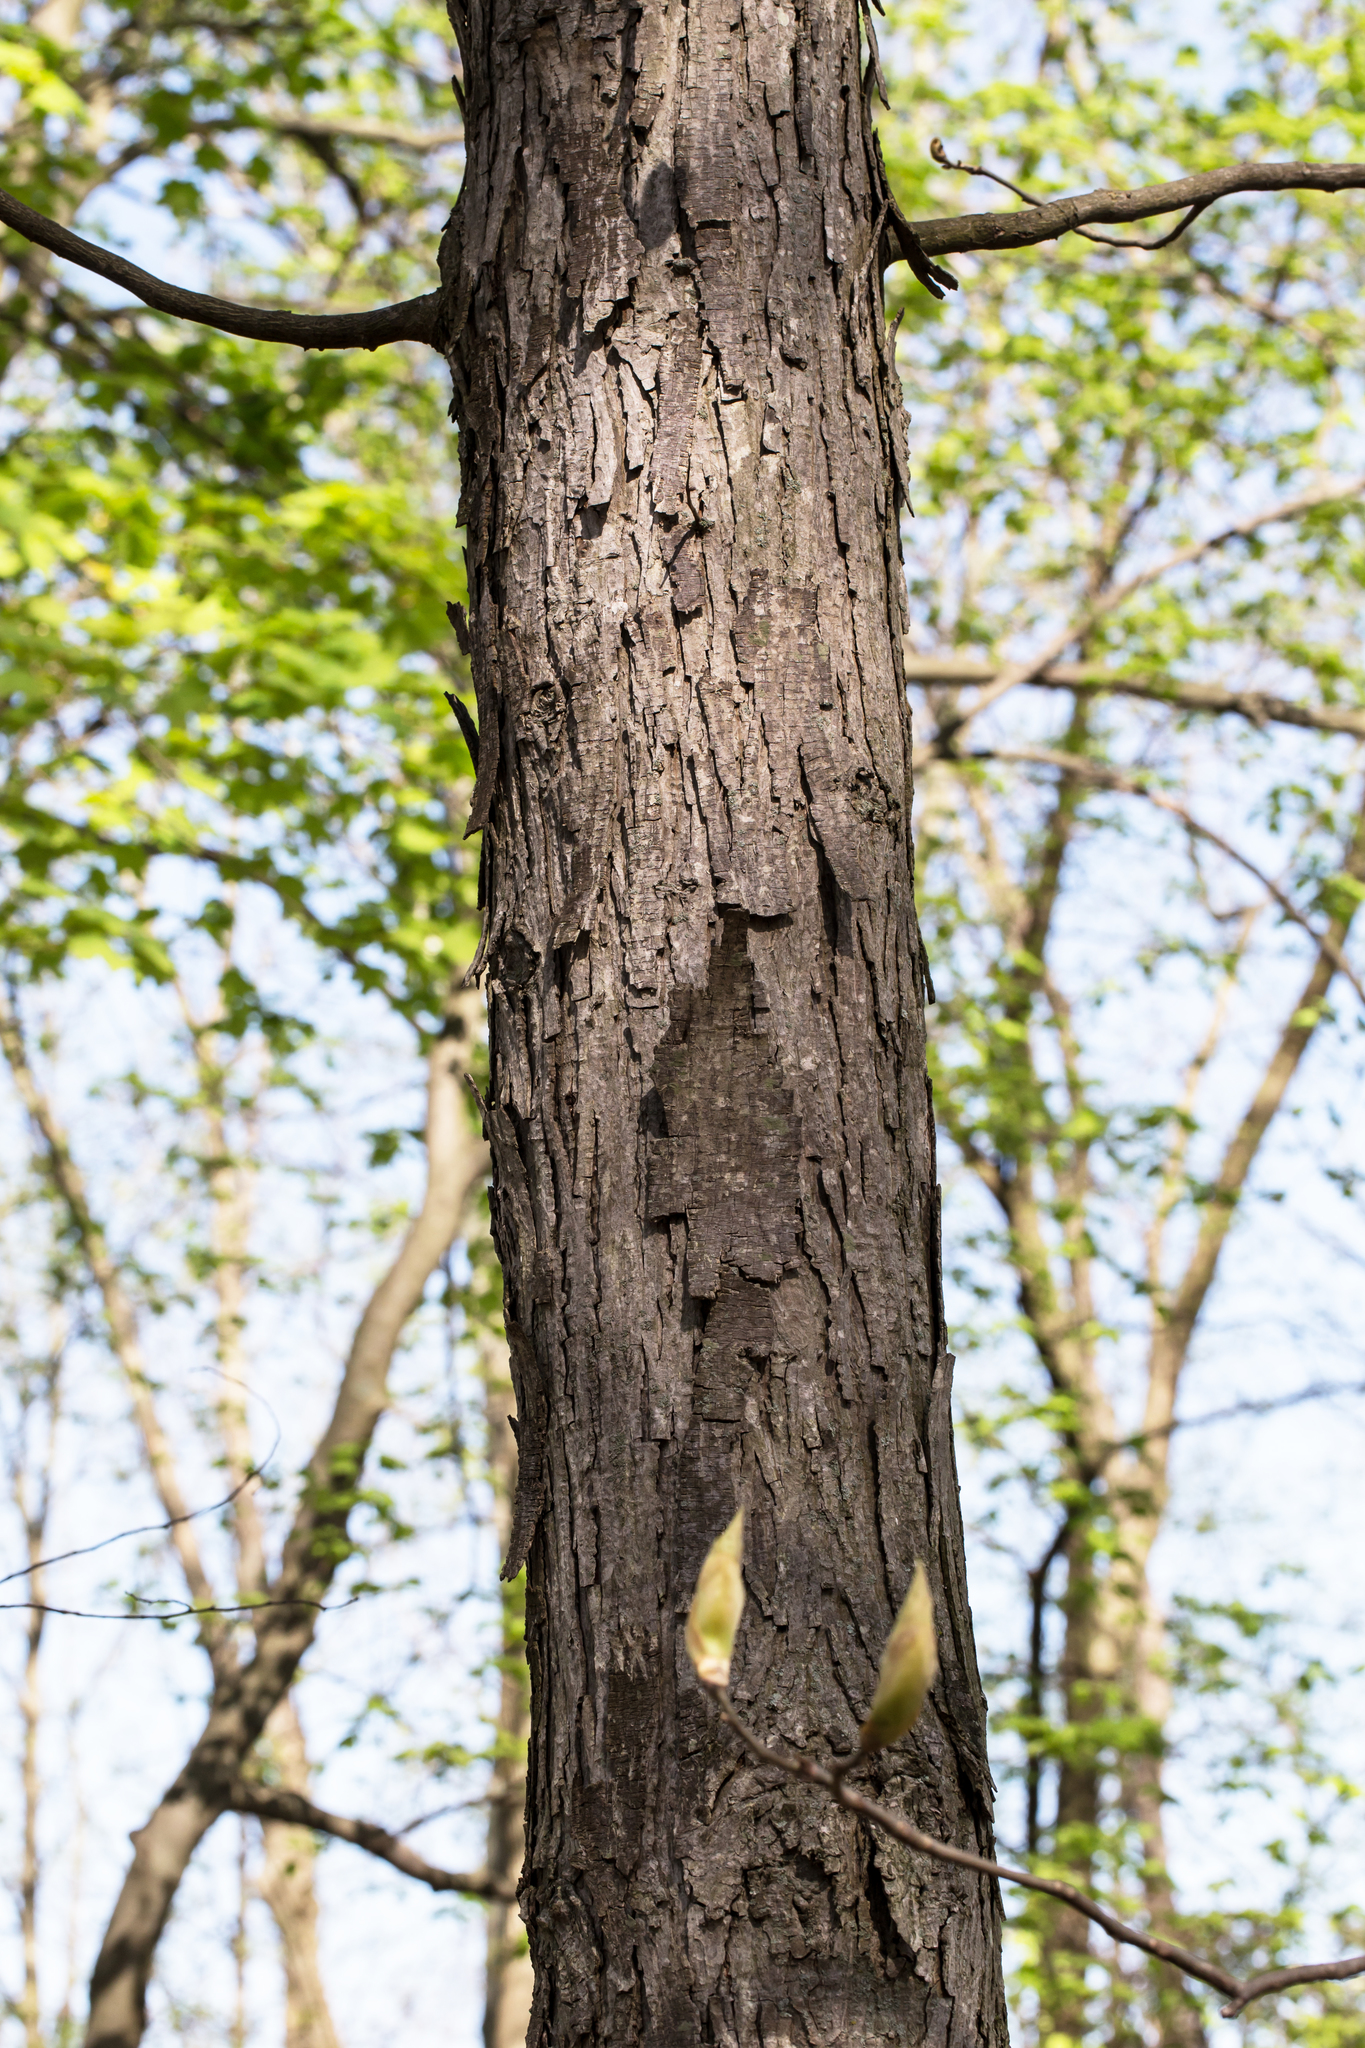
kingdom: Plantae
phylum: Tracheophyta
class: Magnoliopsida
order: Fagales
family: Juglandaceae
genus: Carya
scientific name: Carya ovata
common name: Shagbark hickory
